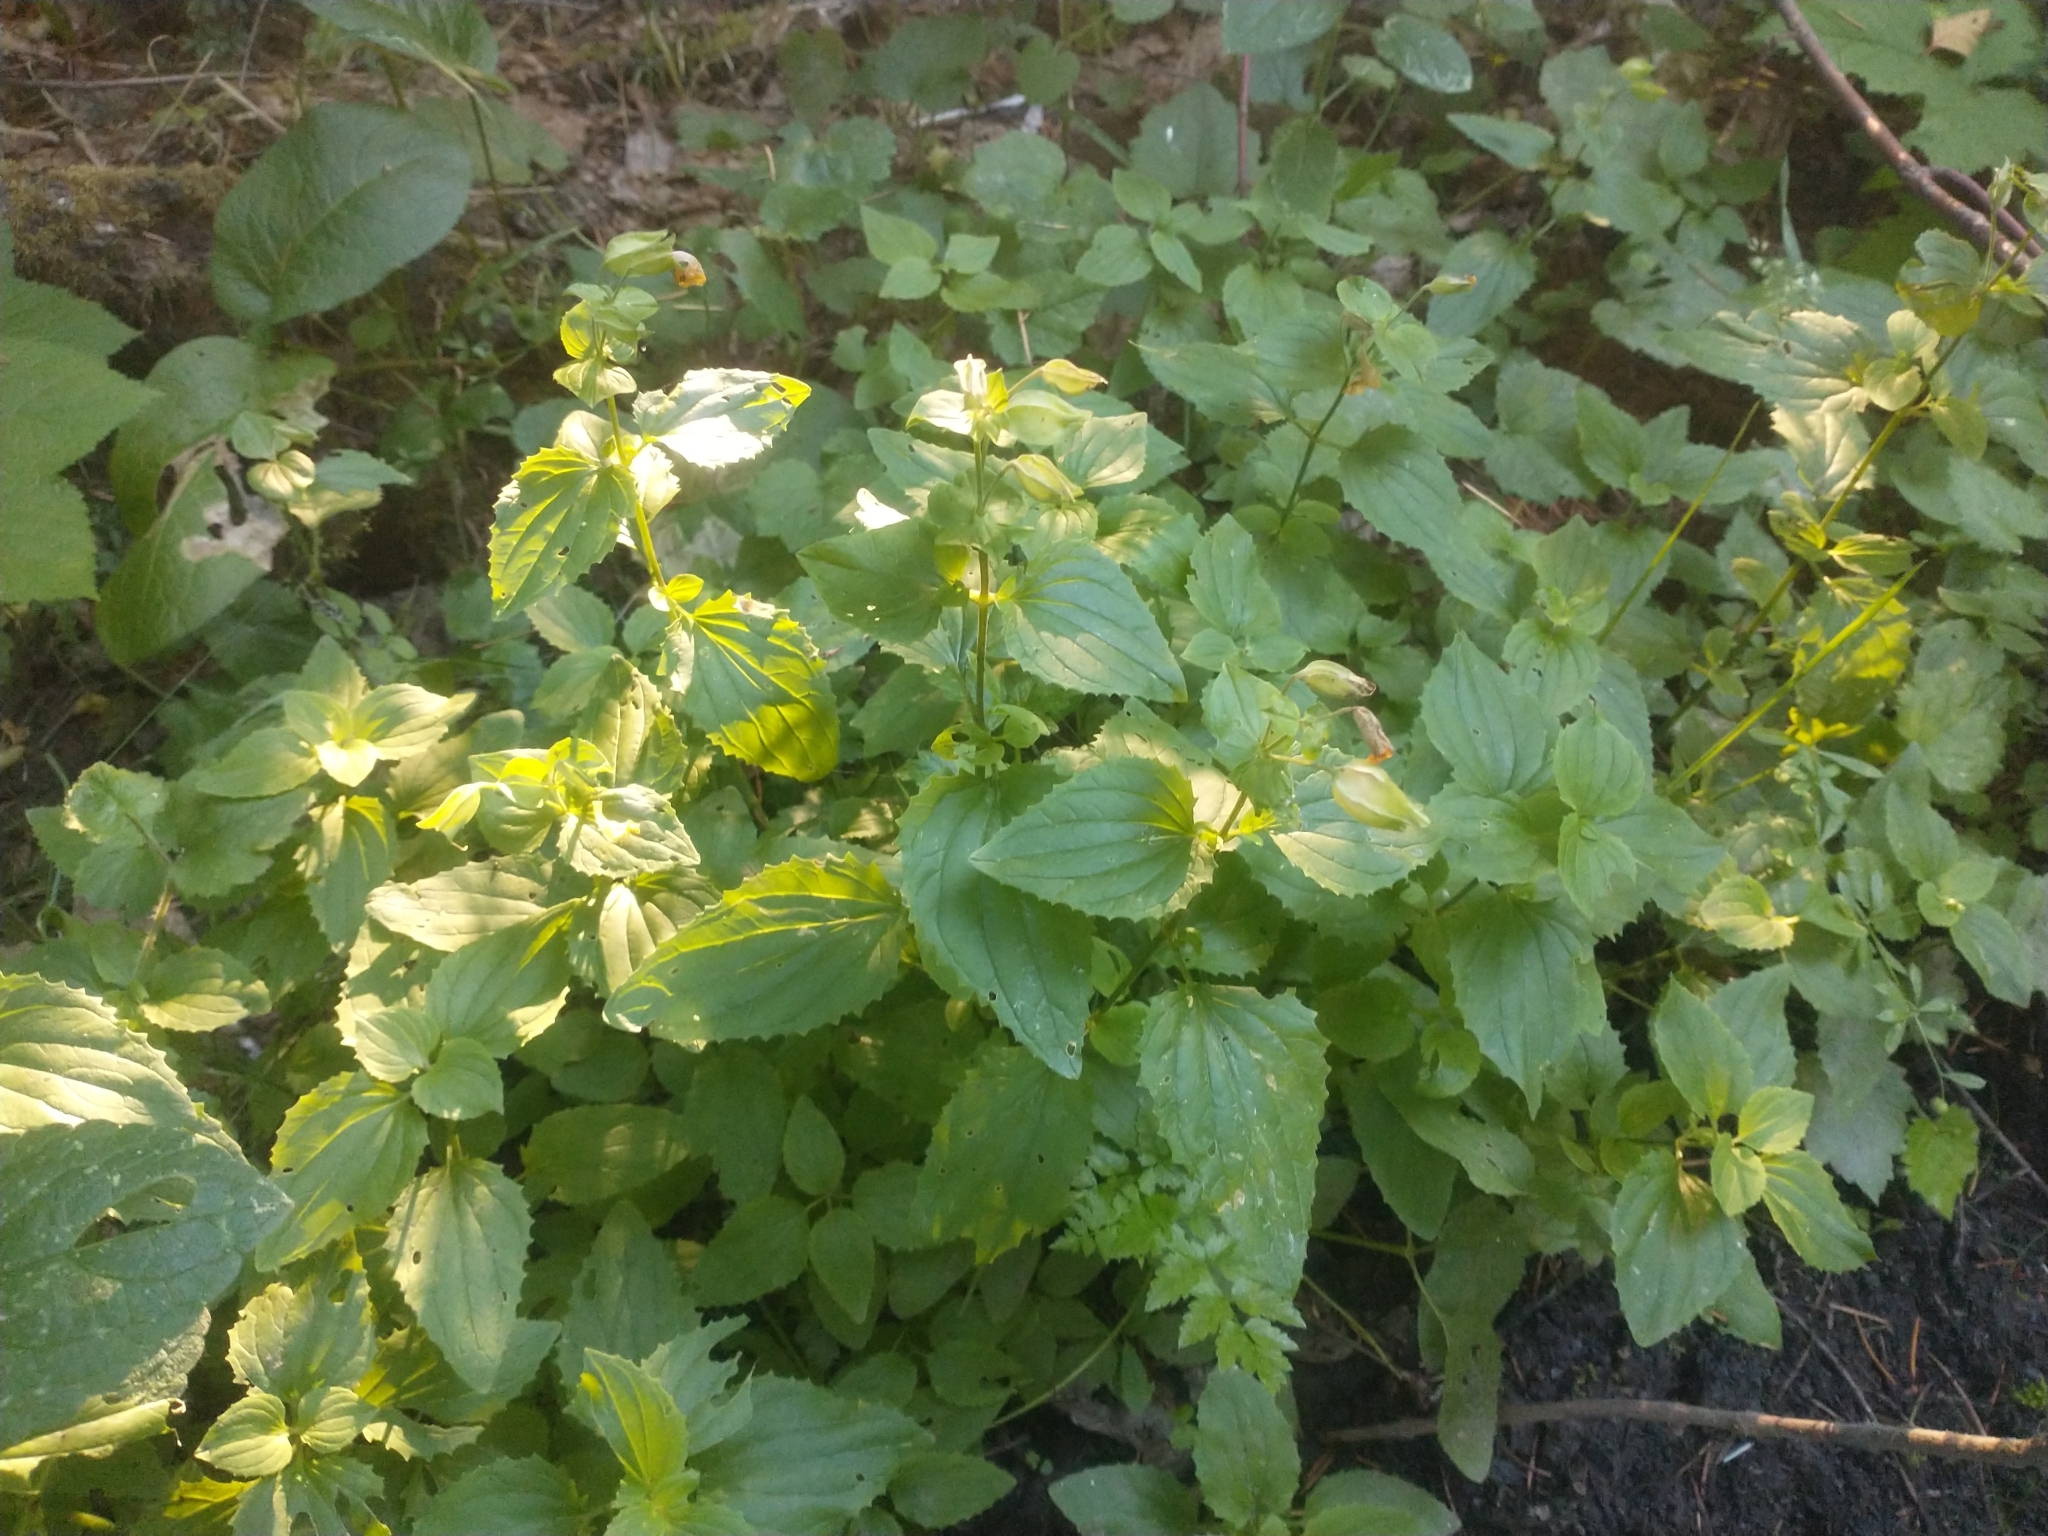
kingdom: Plantae
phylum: Tracheophyta
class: Magnoliopsida
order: Lamiales
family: Phrymaceae
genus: Erythranthe
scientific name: Erythranthe decora
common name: Mannered monkeyflower
